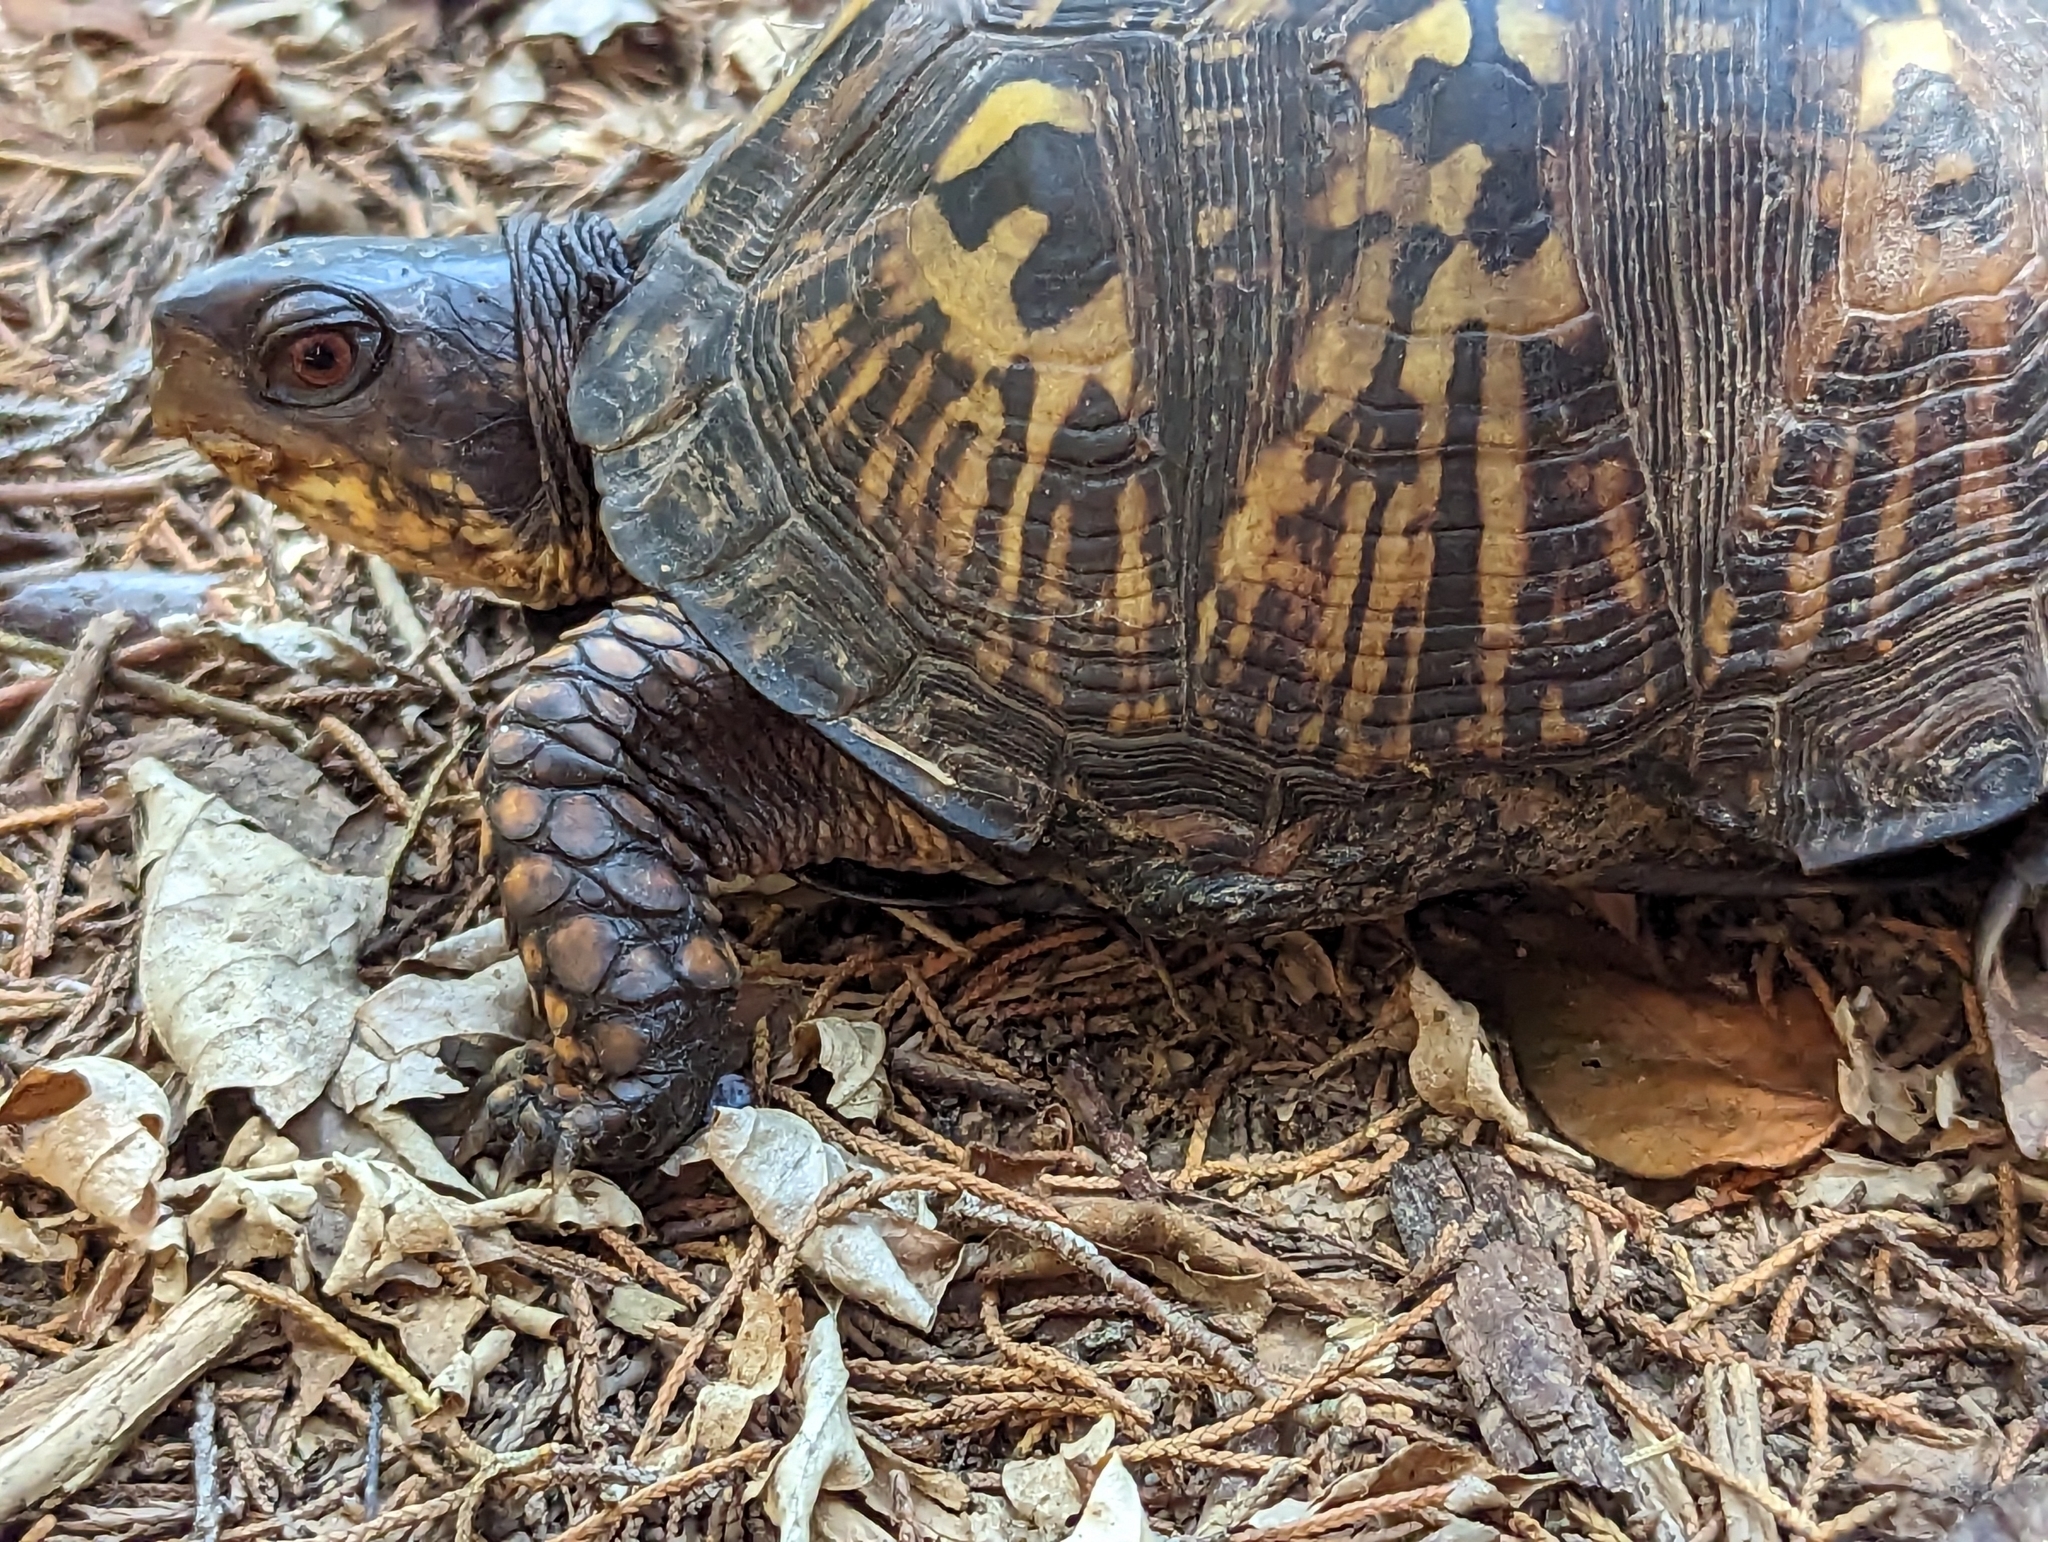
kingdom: Animalia
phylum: Chordata
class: Testudines
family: Emydidae
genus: Terrapene
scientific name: Terrapene carolina
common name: Common box turtle
